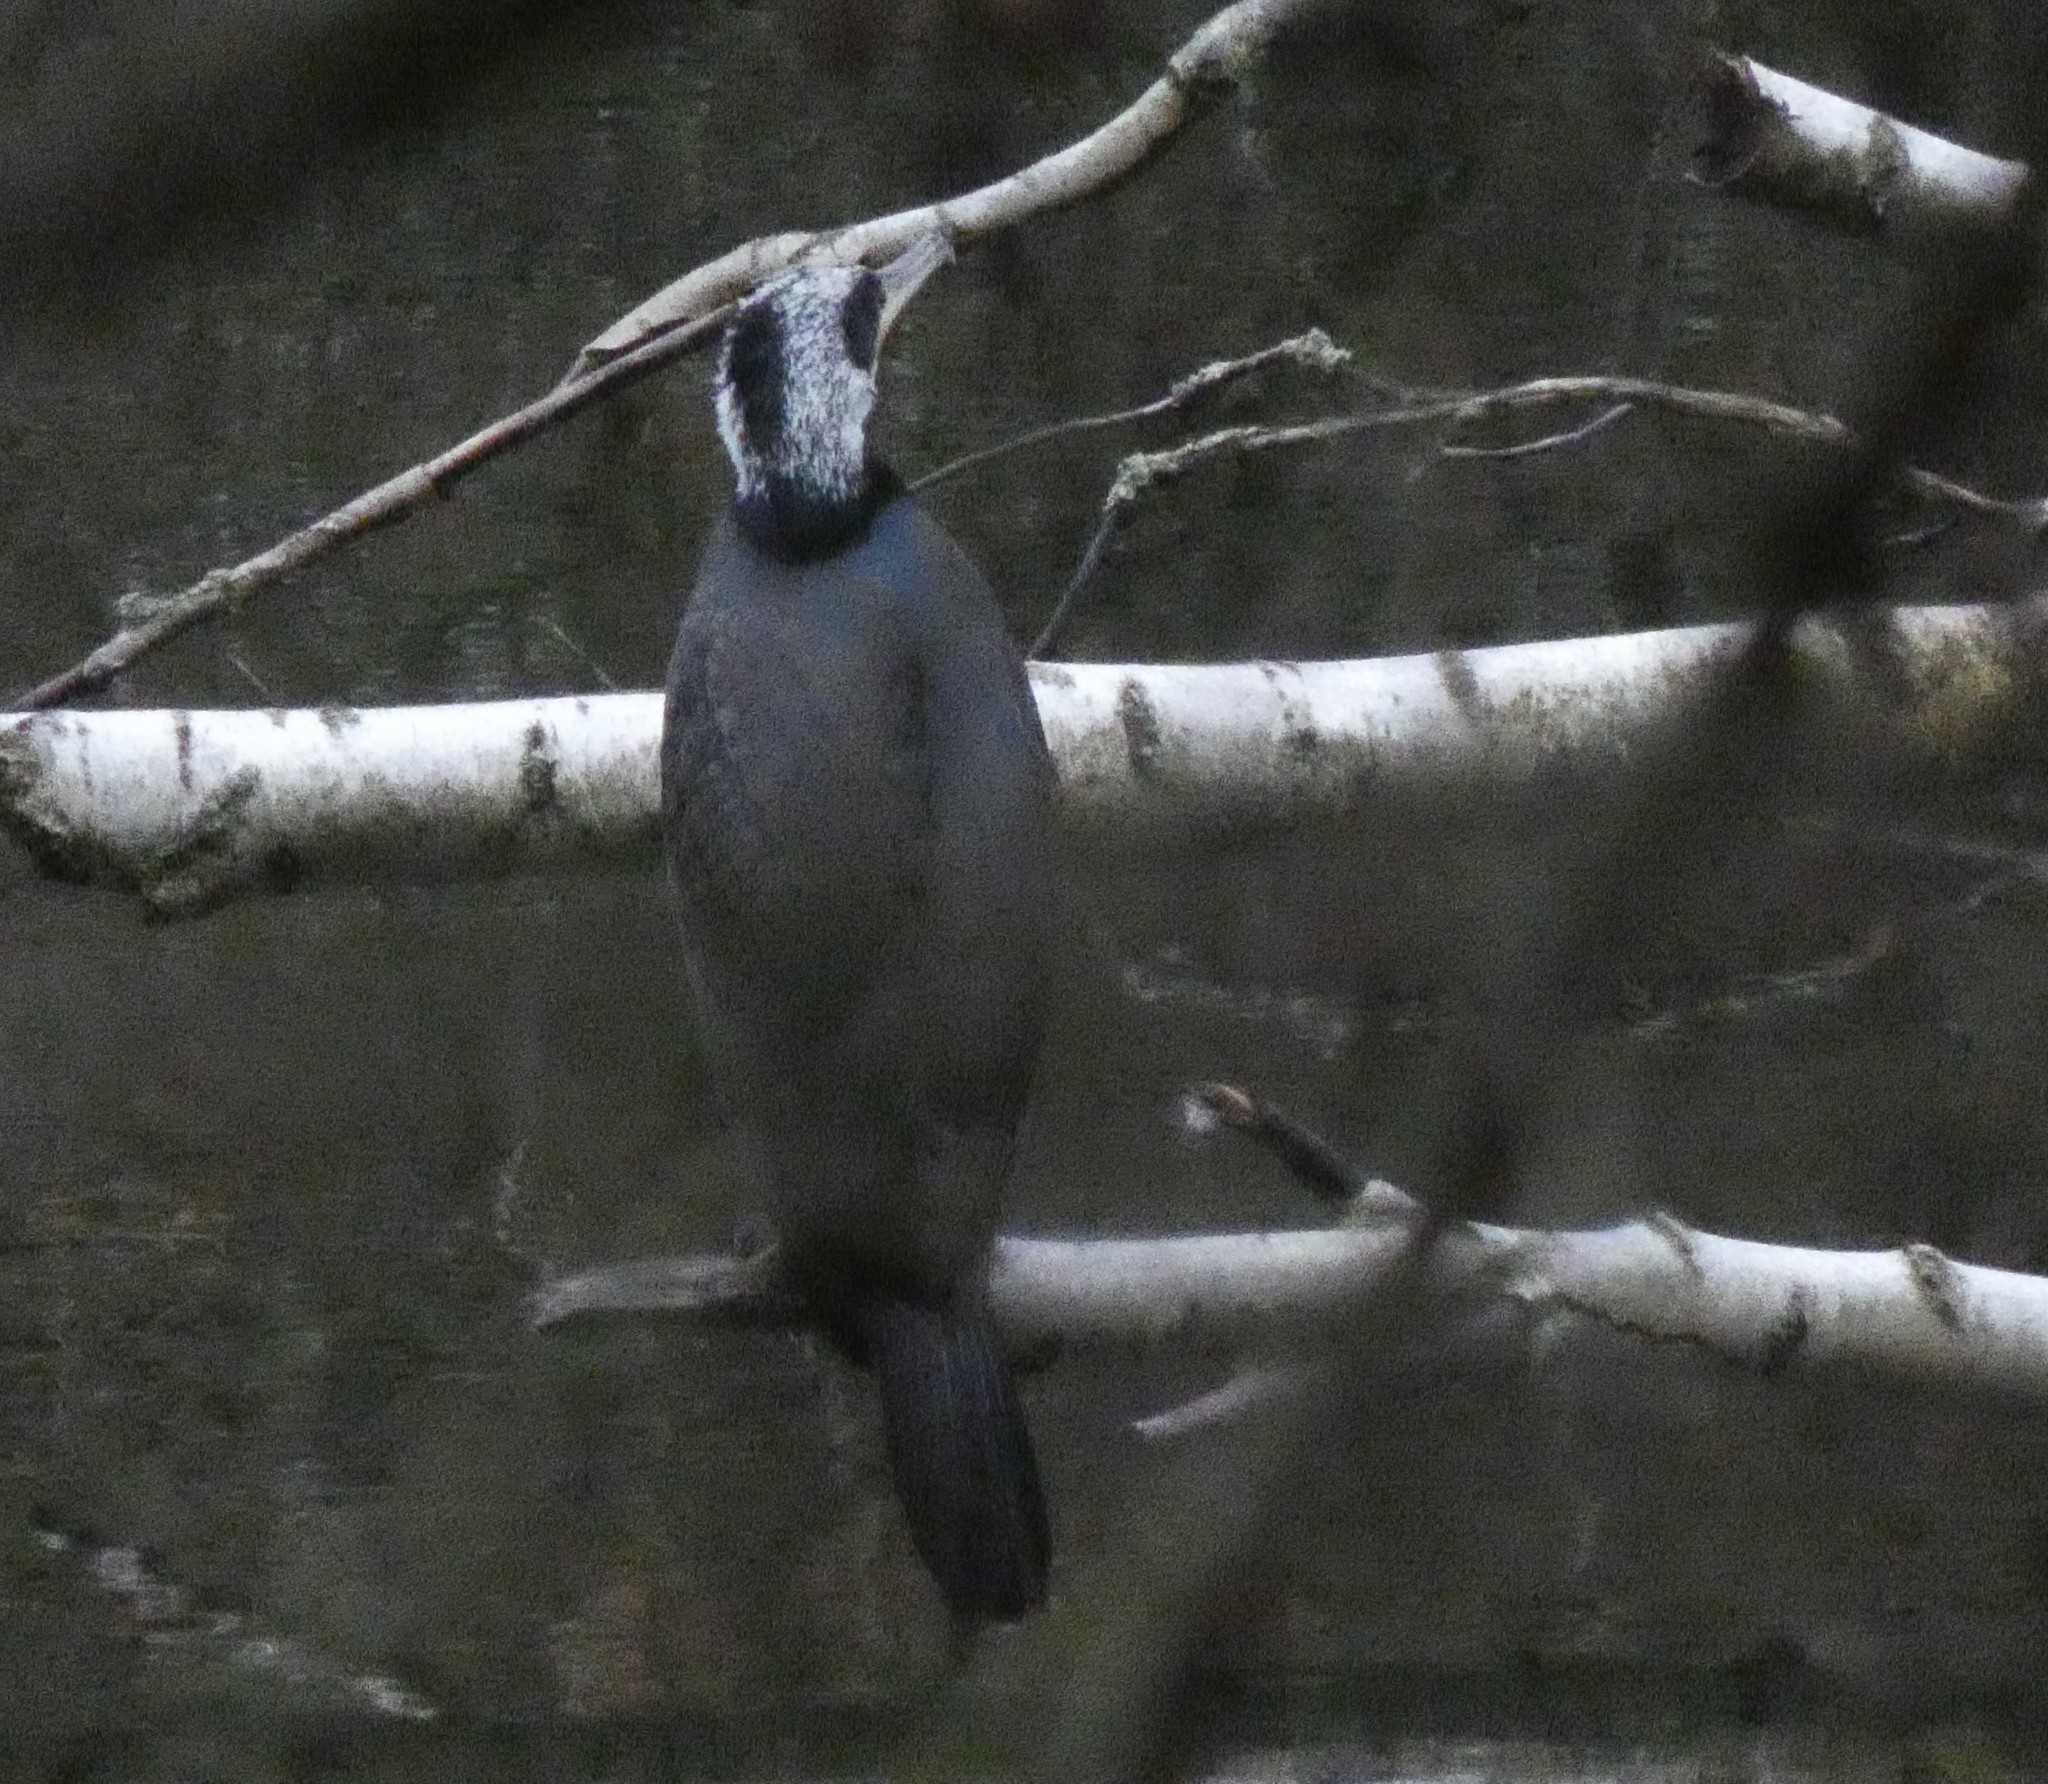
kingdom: Animalia
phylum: Chordata
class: Aves
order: Suliformes
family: Phalacrocoracidae
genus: Phalacrocorax
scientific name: Phalacrocorax carbo
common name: Great cormorant
